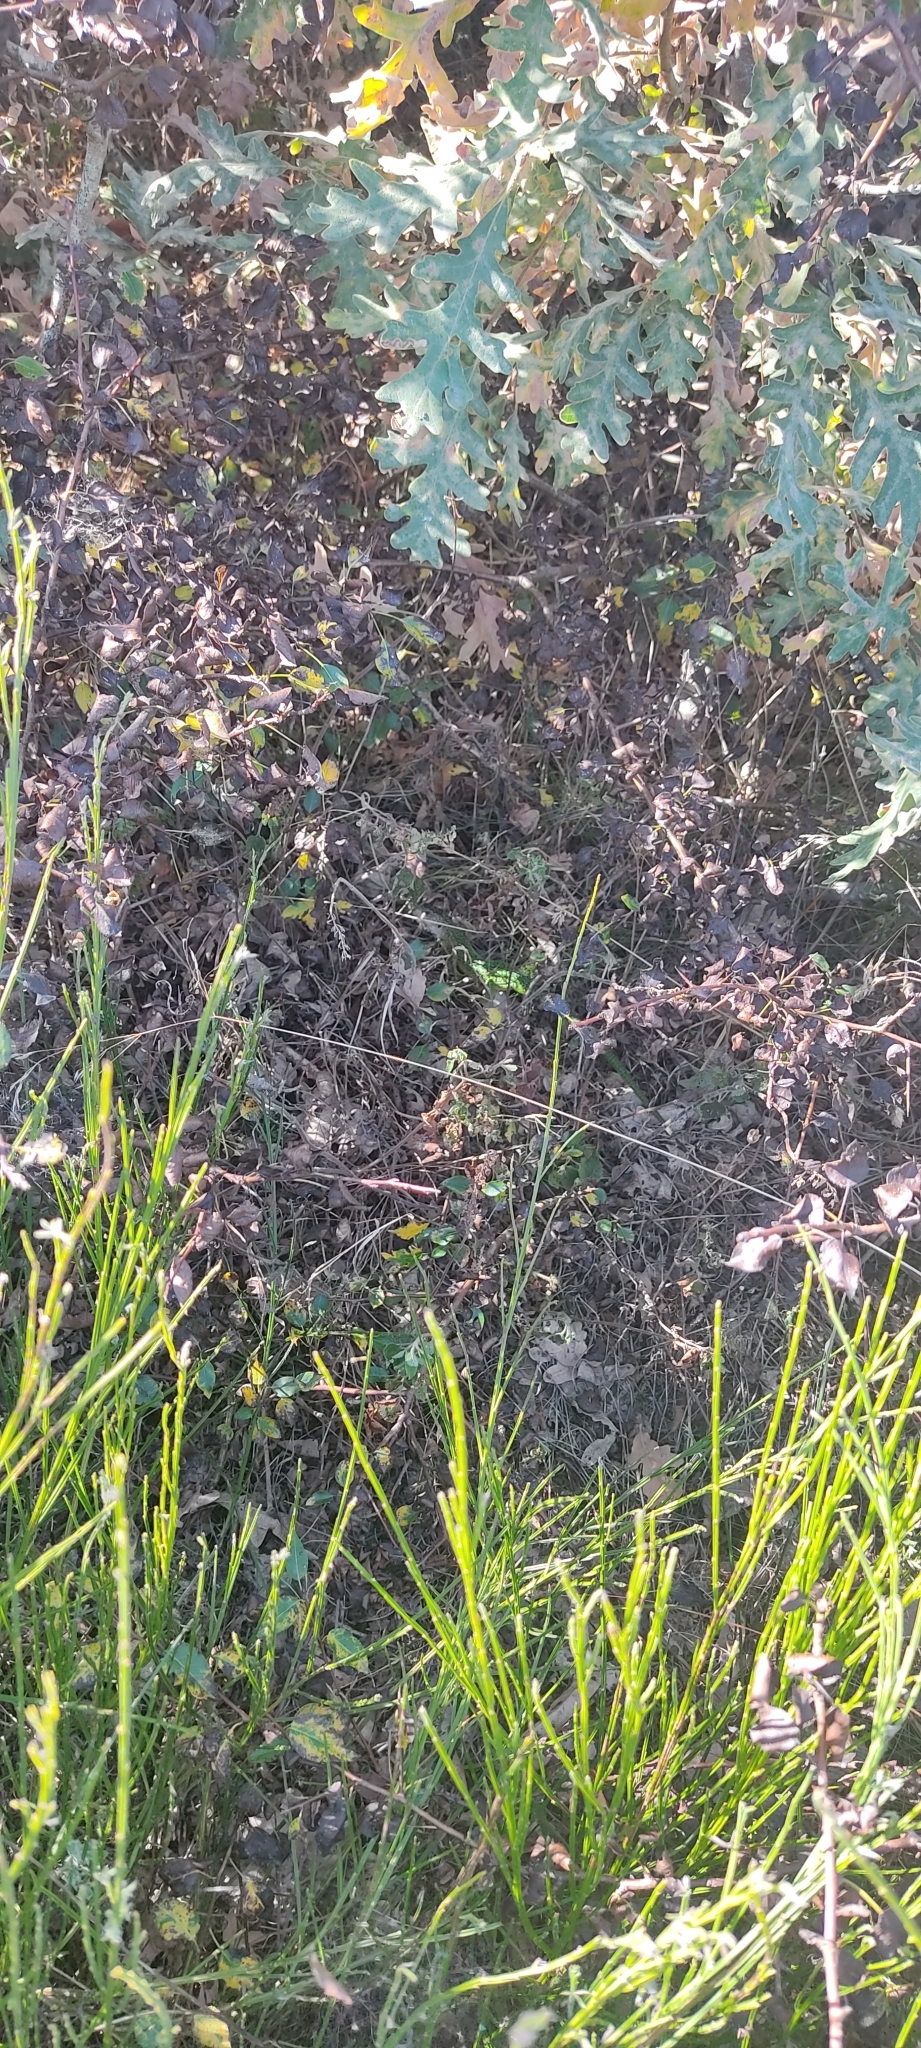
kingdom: Animalia
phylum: Chordata
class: Squamata
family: Lacertidae
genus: Lacerta
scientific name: Lacerta bilineata
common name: Western green lizard
